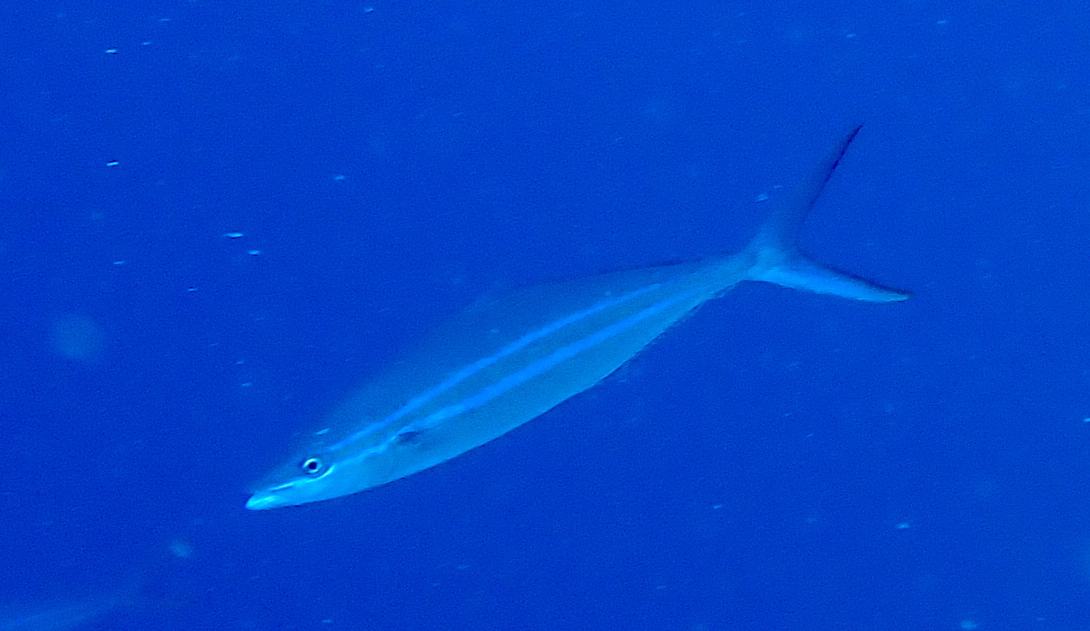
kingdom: Animalia
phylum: Chordata
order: Perciformes
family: Carangidae
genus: Elagatis
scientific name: Elagatis bipinnulata
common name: Rainbow runner
